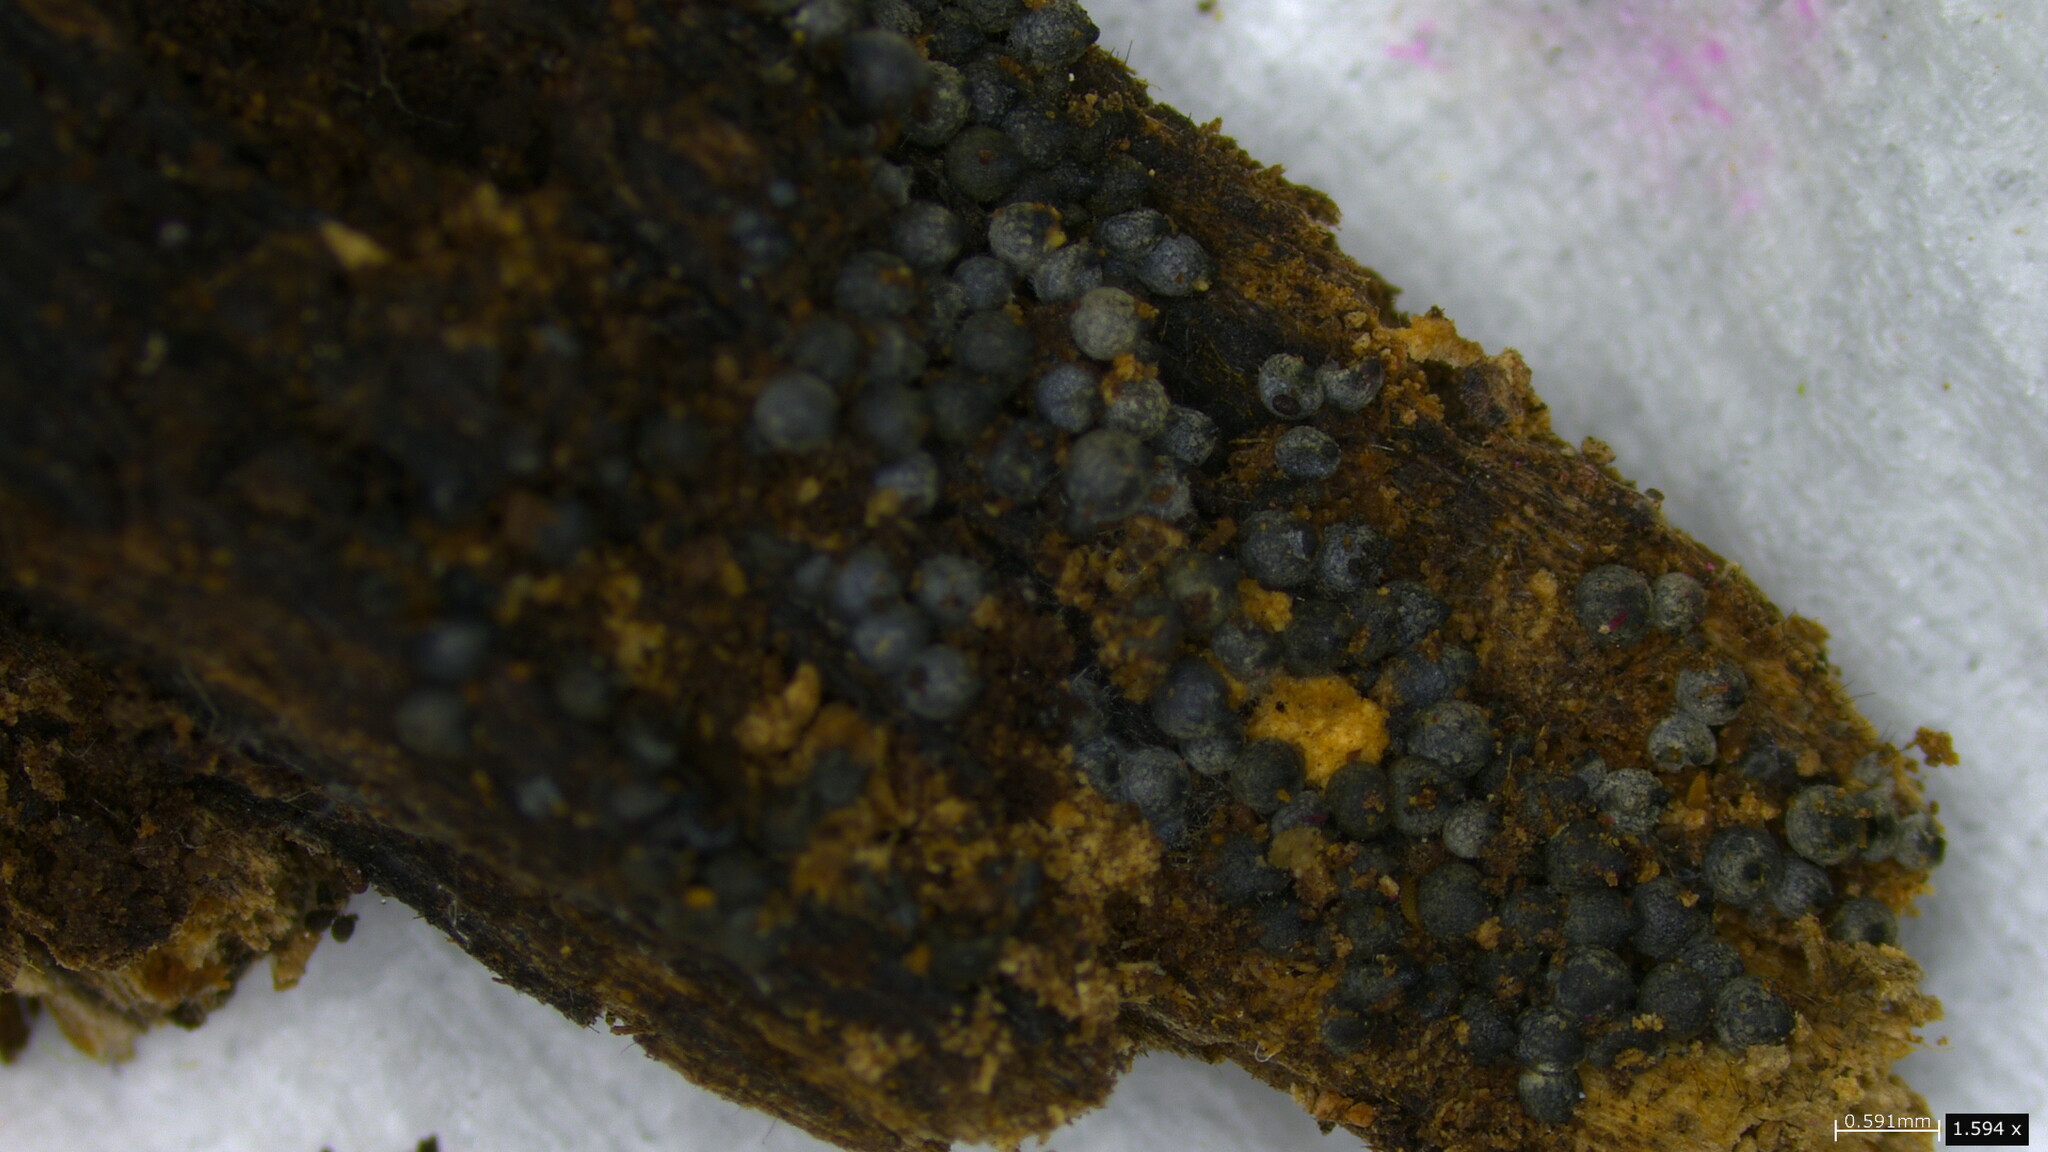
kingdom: Fungi
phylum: Ascomycota
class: Sordariomycetes
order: Sordariales
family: Lasiosphaeriaceae
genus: Lasiosphaeria
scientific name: Lasiosphaeria ovina
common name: Woolly woodwart
